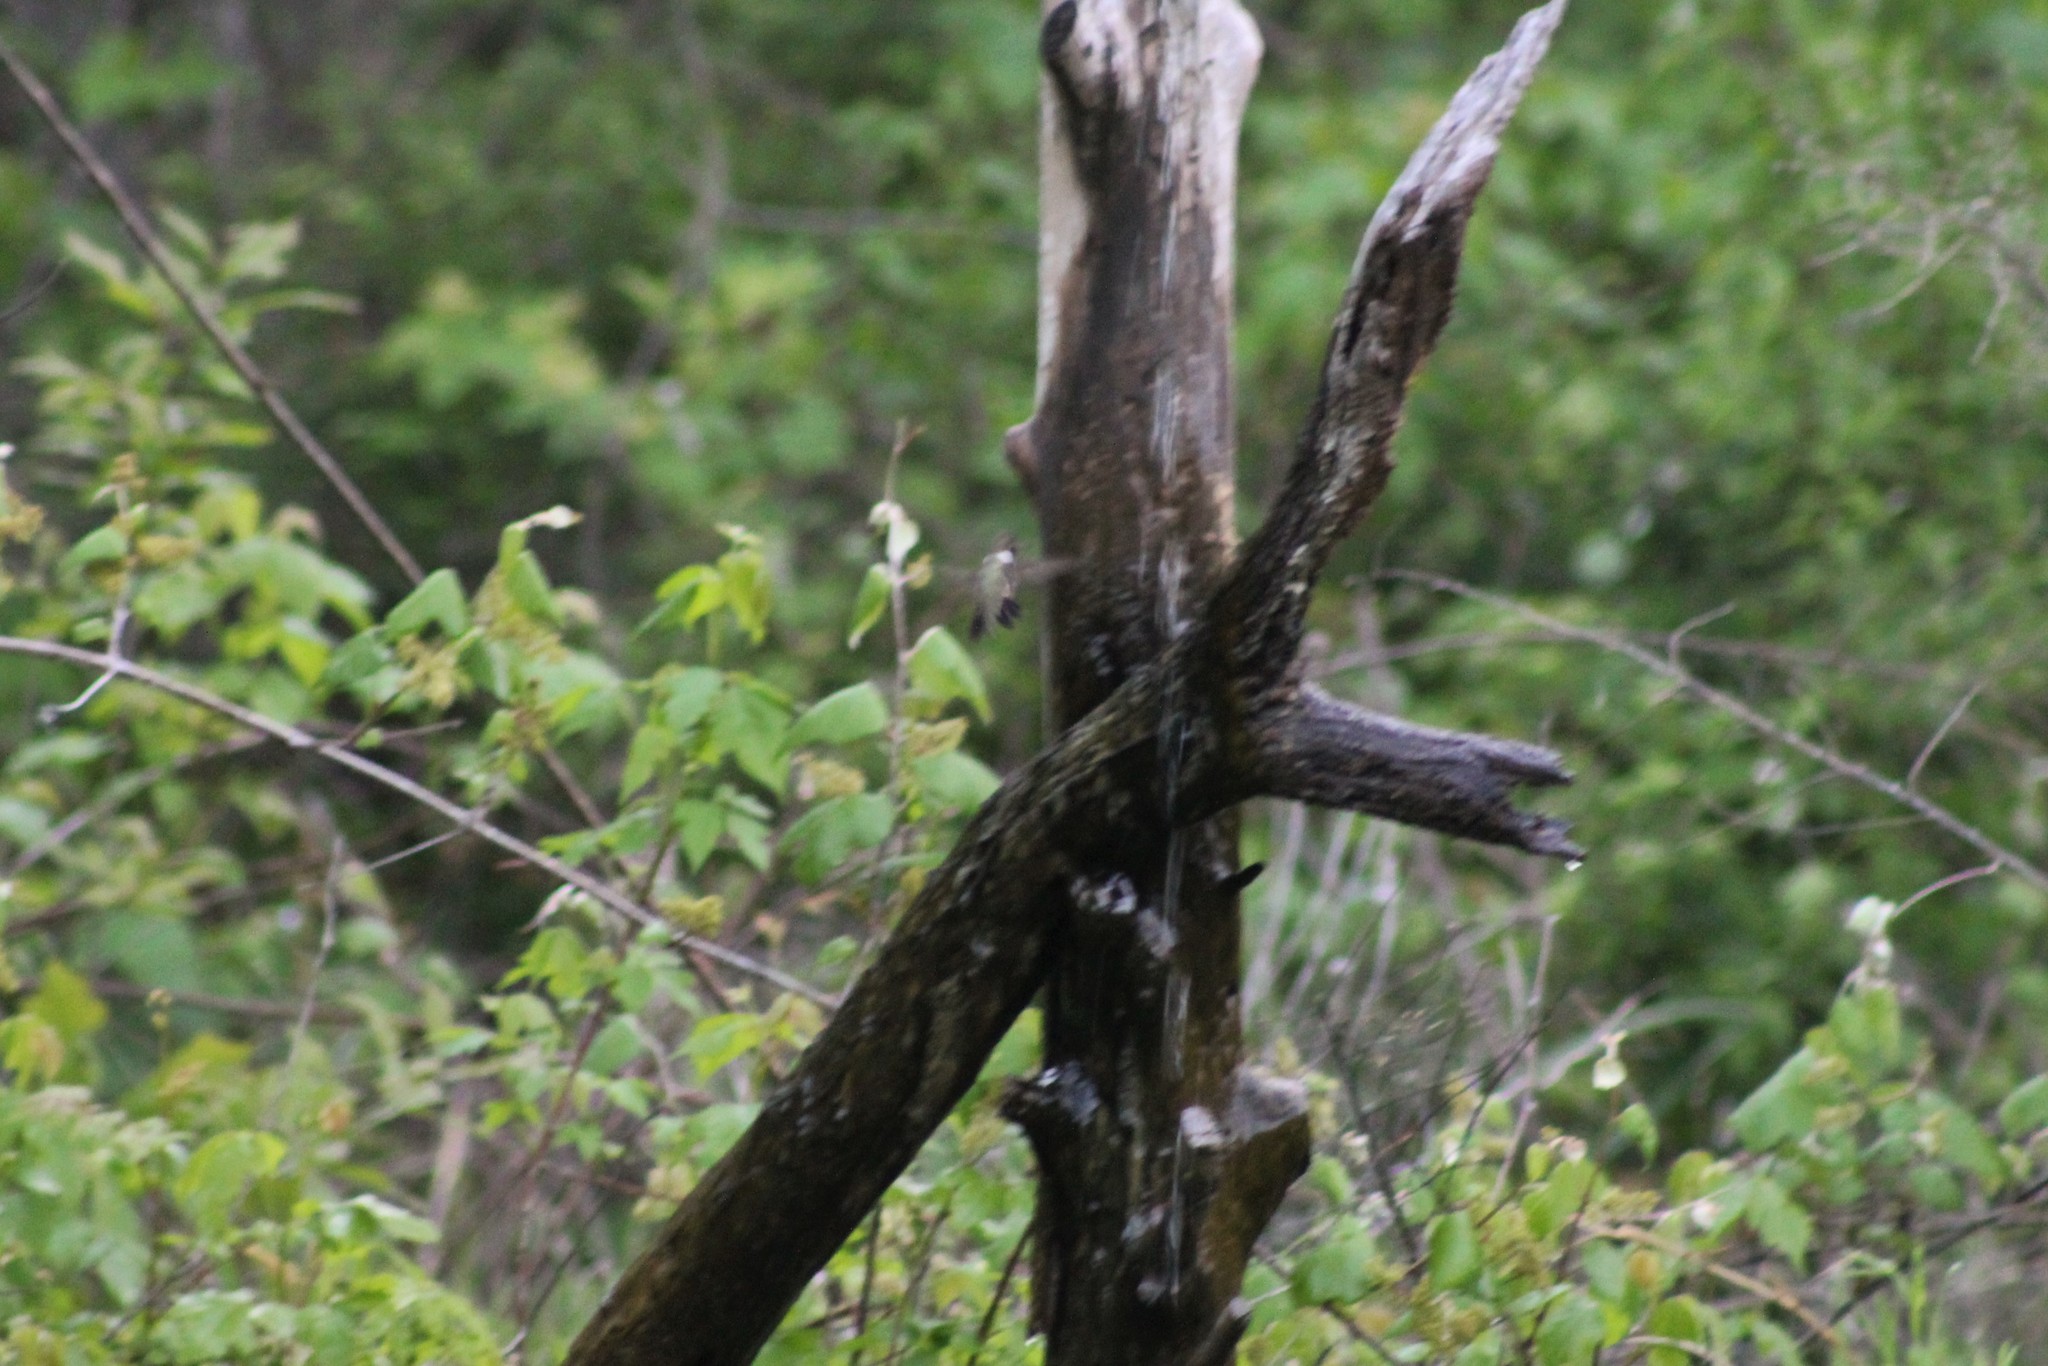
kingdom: Animalia
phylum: Chordata
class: Aves
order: Apodiformes
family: Trochilidae
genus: Archilochus
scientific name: Archilochus alexandri
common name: Black-chinned hummingbird
